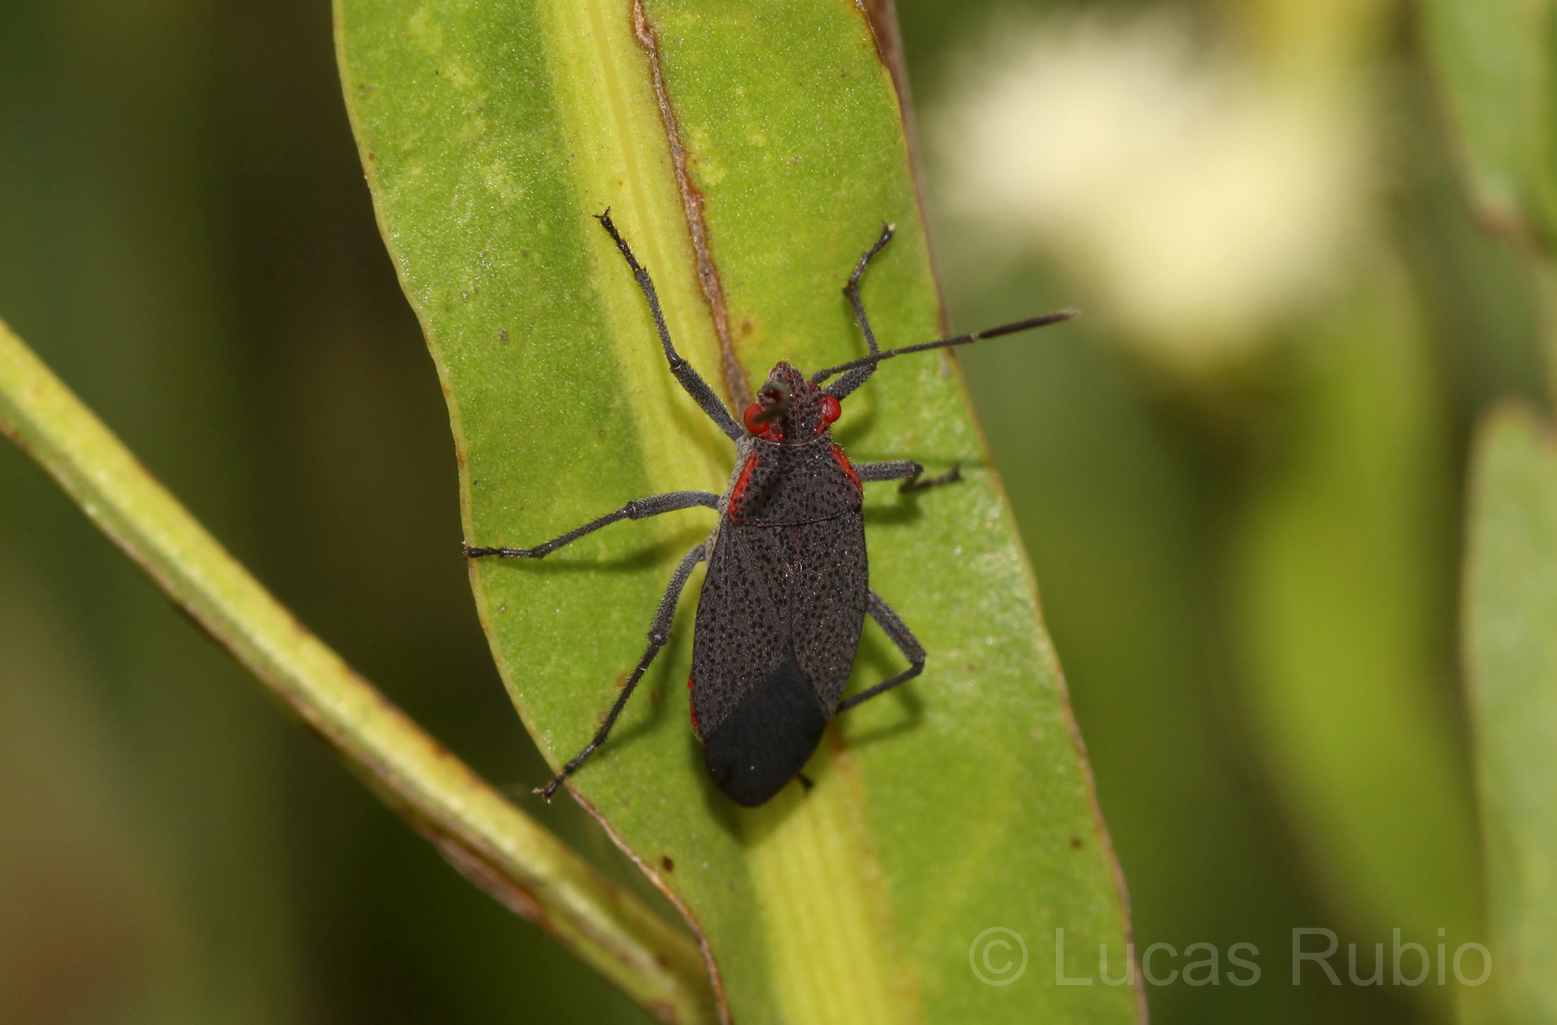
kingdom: Animalia
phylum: Arthropoda
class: Insecta
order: Hemiptera
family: Rhopalidae
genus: Jadera
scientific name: Jadera parapectoralis
